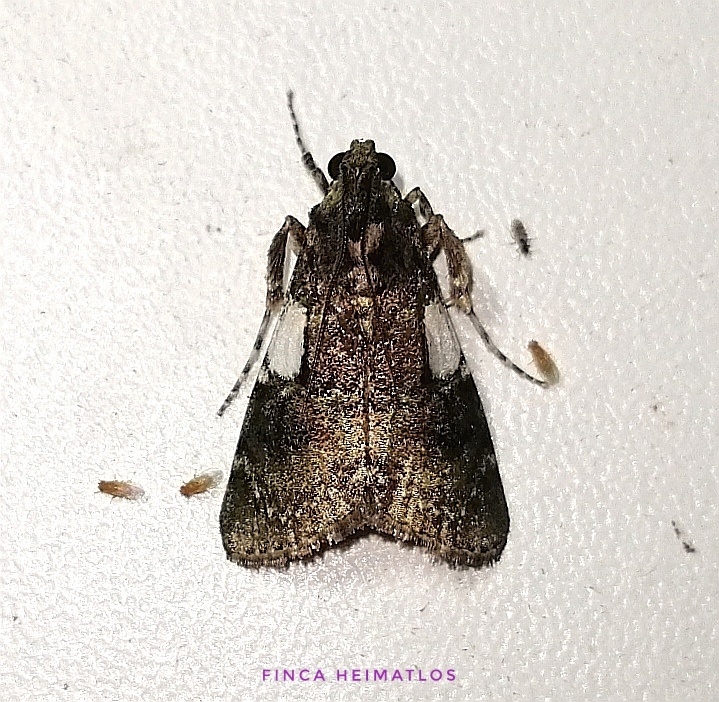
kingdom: Animalia
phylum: Arthropoda
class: Insecta
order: Lepidoptera
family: Pyralidae
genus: Accinctapubes
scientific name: Accinctapubes albifasciata
